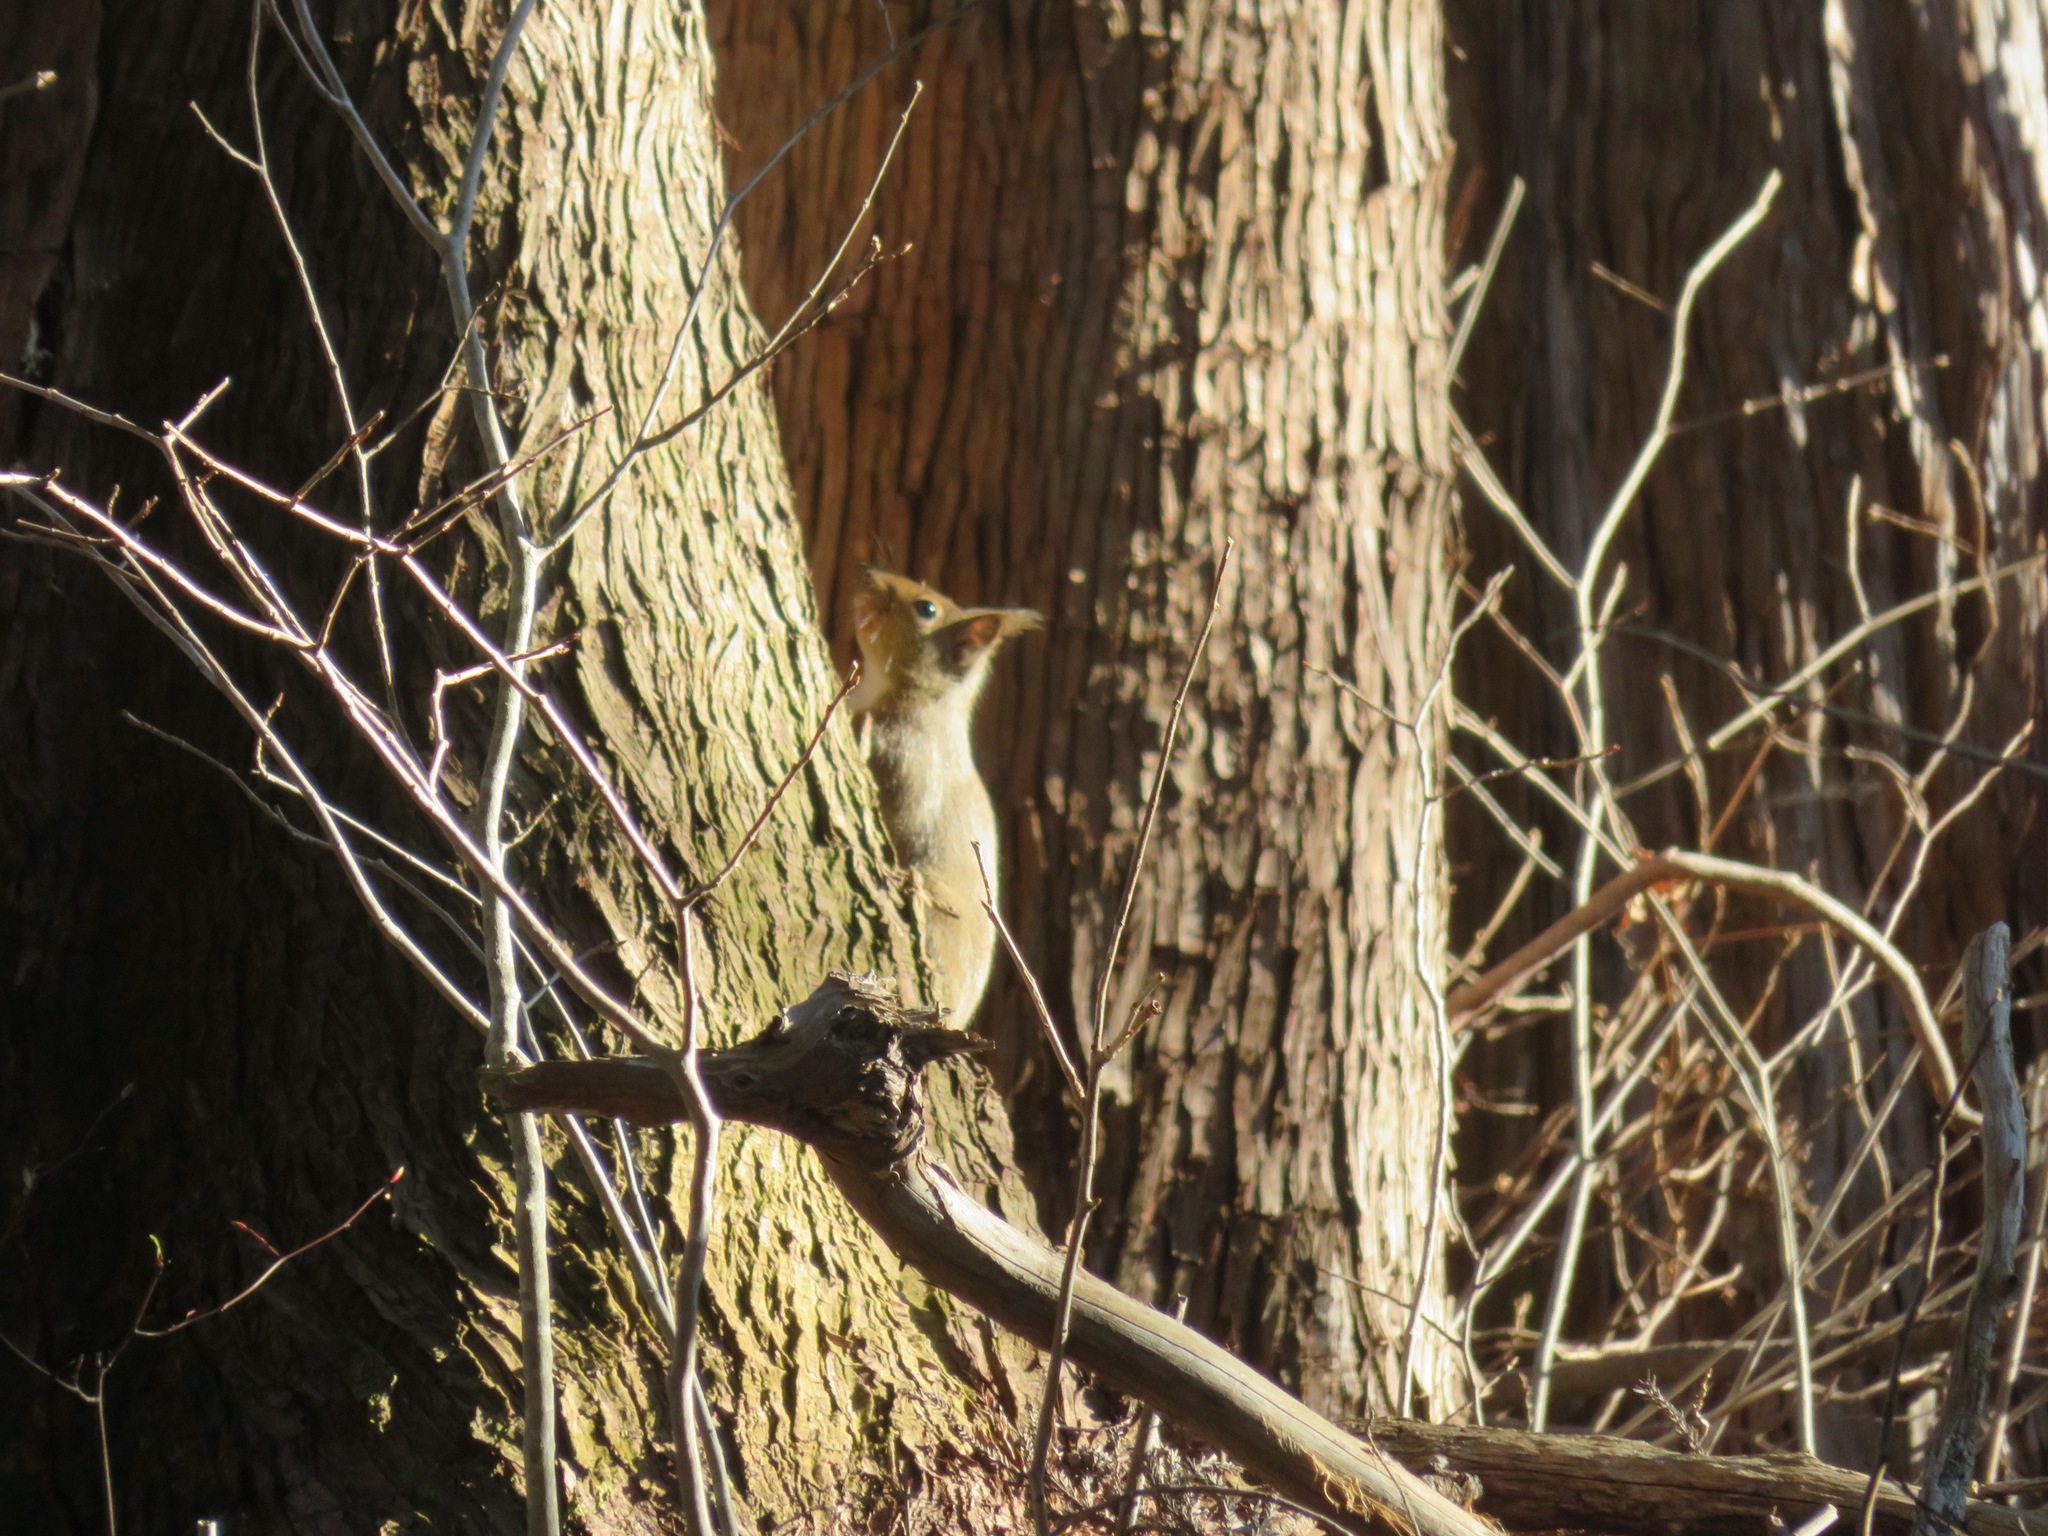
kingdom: Animalia
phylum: Chordata
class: Mammalia
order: Rodentia
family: Sciuridae
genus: Sciurus
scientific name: Sciurus lis
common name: Japanese squirrel
